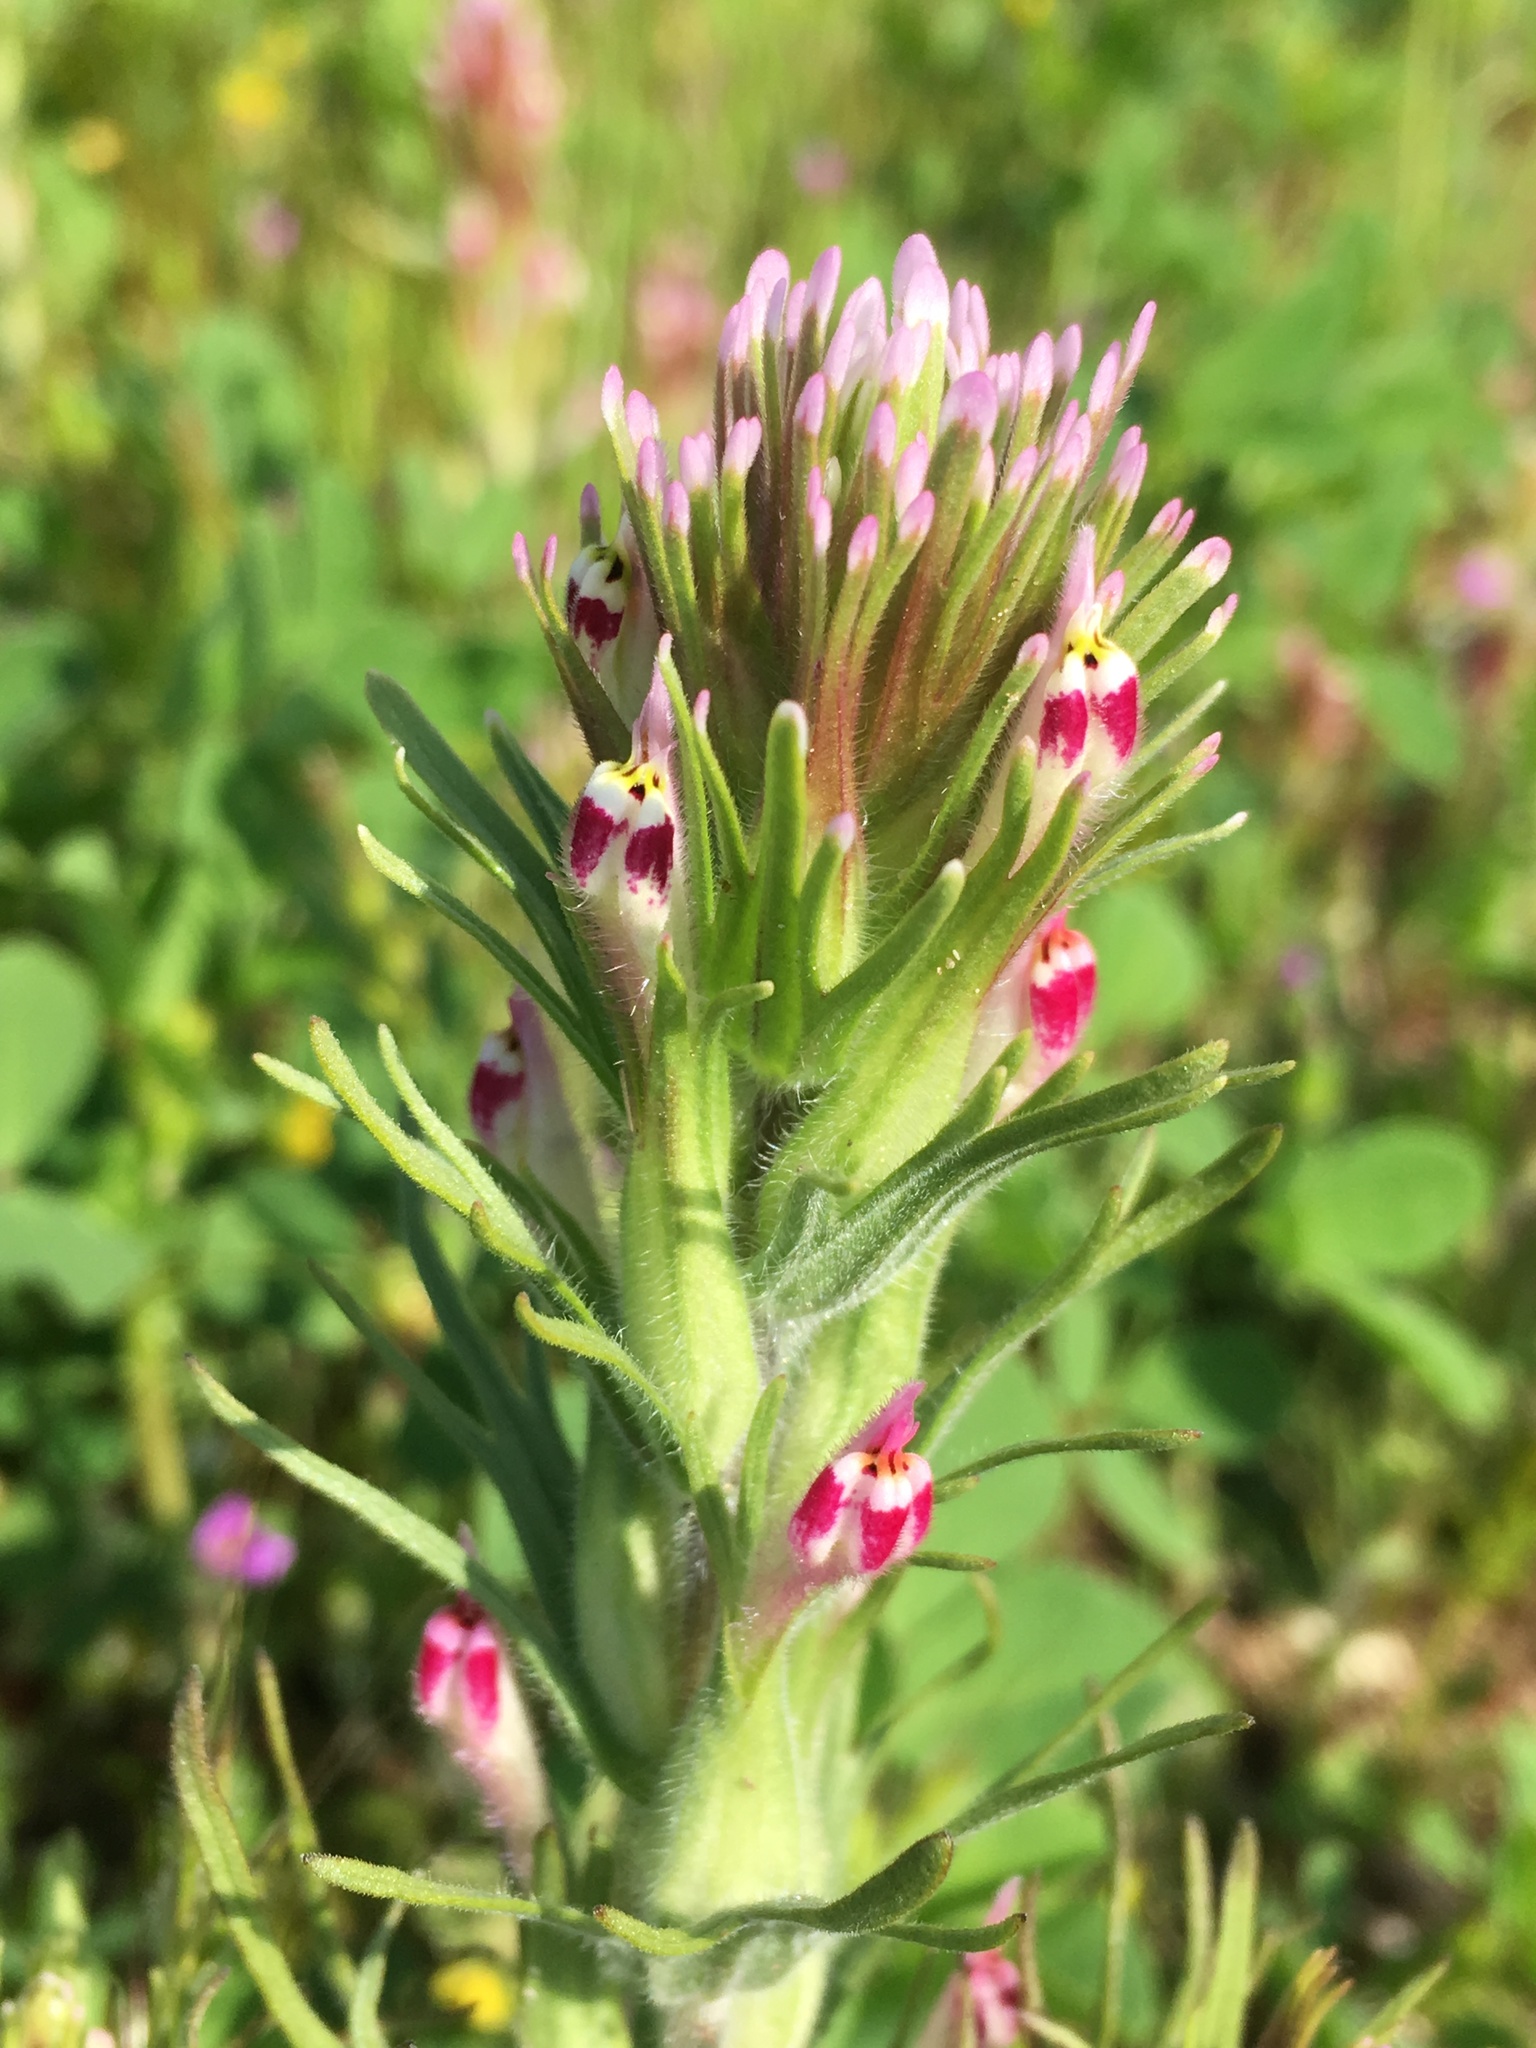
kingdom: Plantae
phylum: Tracheophyta
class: Magnoliopsida
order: Lamiales
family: Orobanchaceae
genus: Castilleja
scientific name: Castilleja brevistyla
